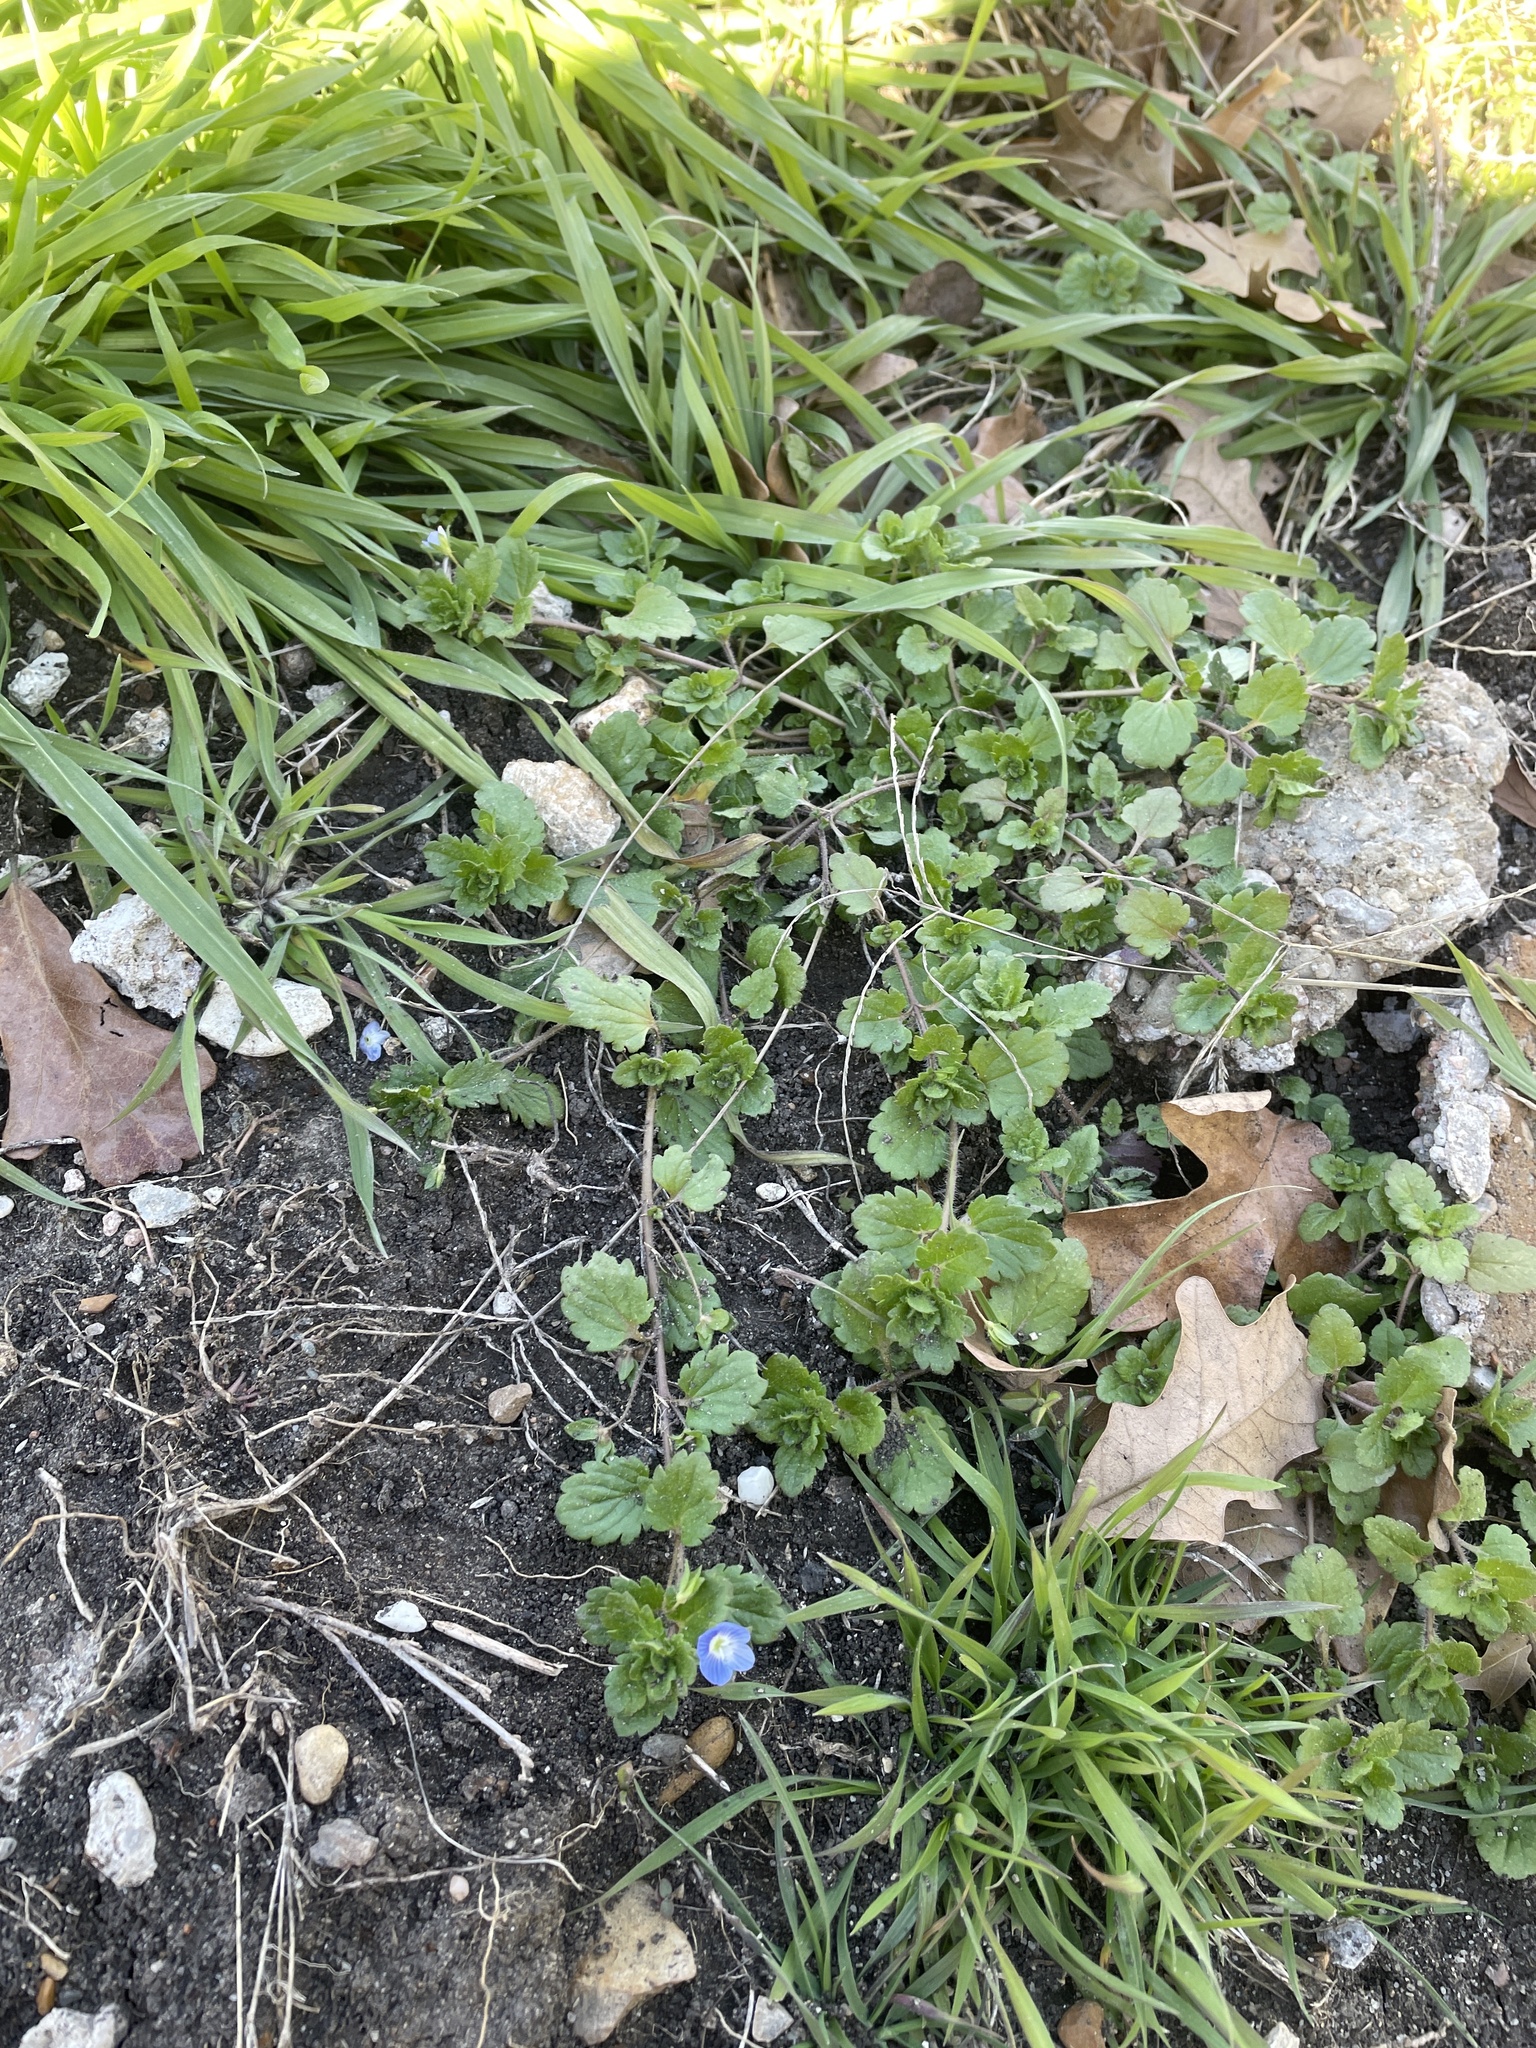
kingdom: Plantae
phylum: Tracheophyta
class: Magnoliopsida
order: Lamiales
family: Plantaginaceae
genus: Veronica
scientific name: Veronica persica
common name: Common field-speedwell
